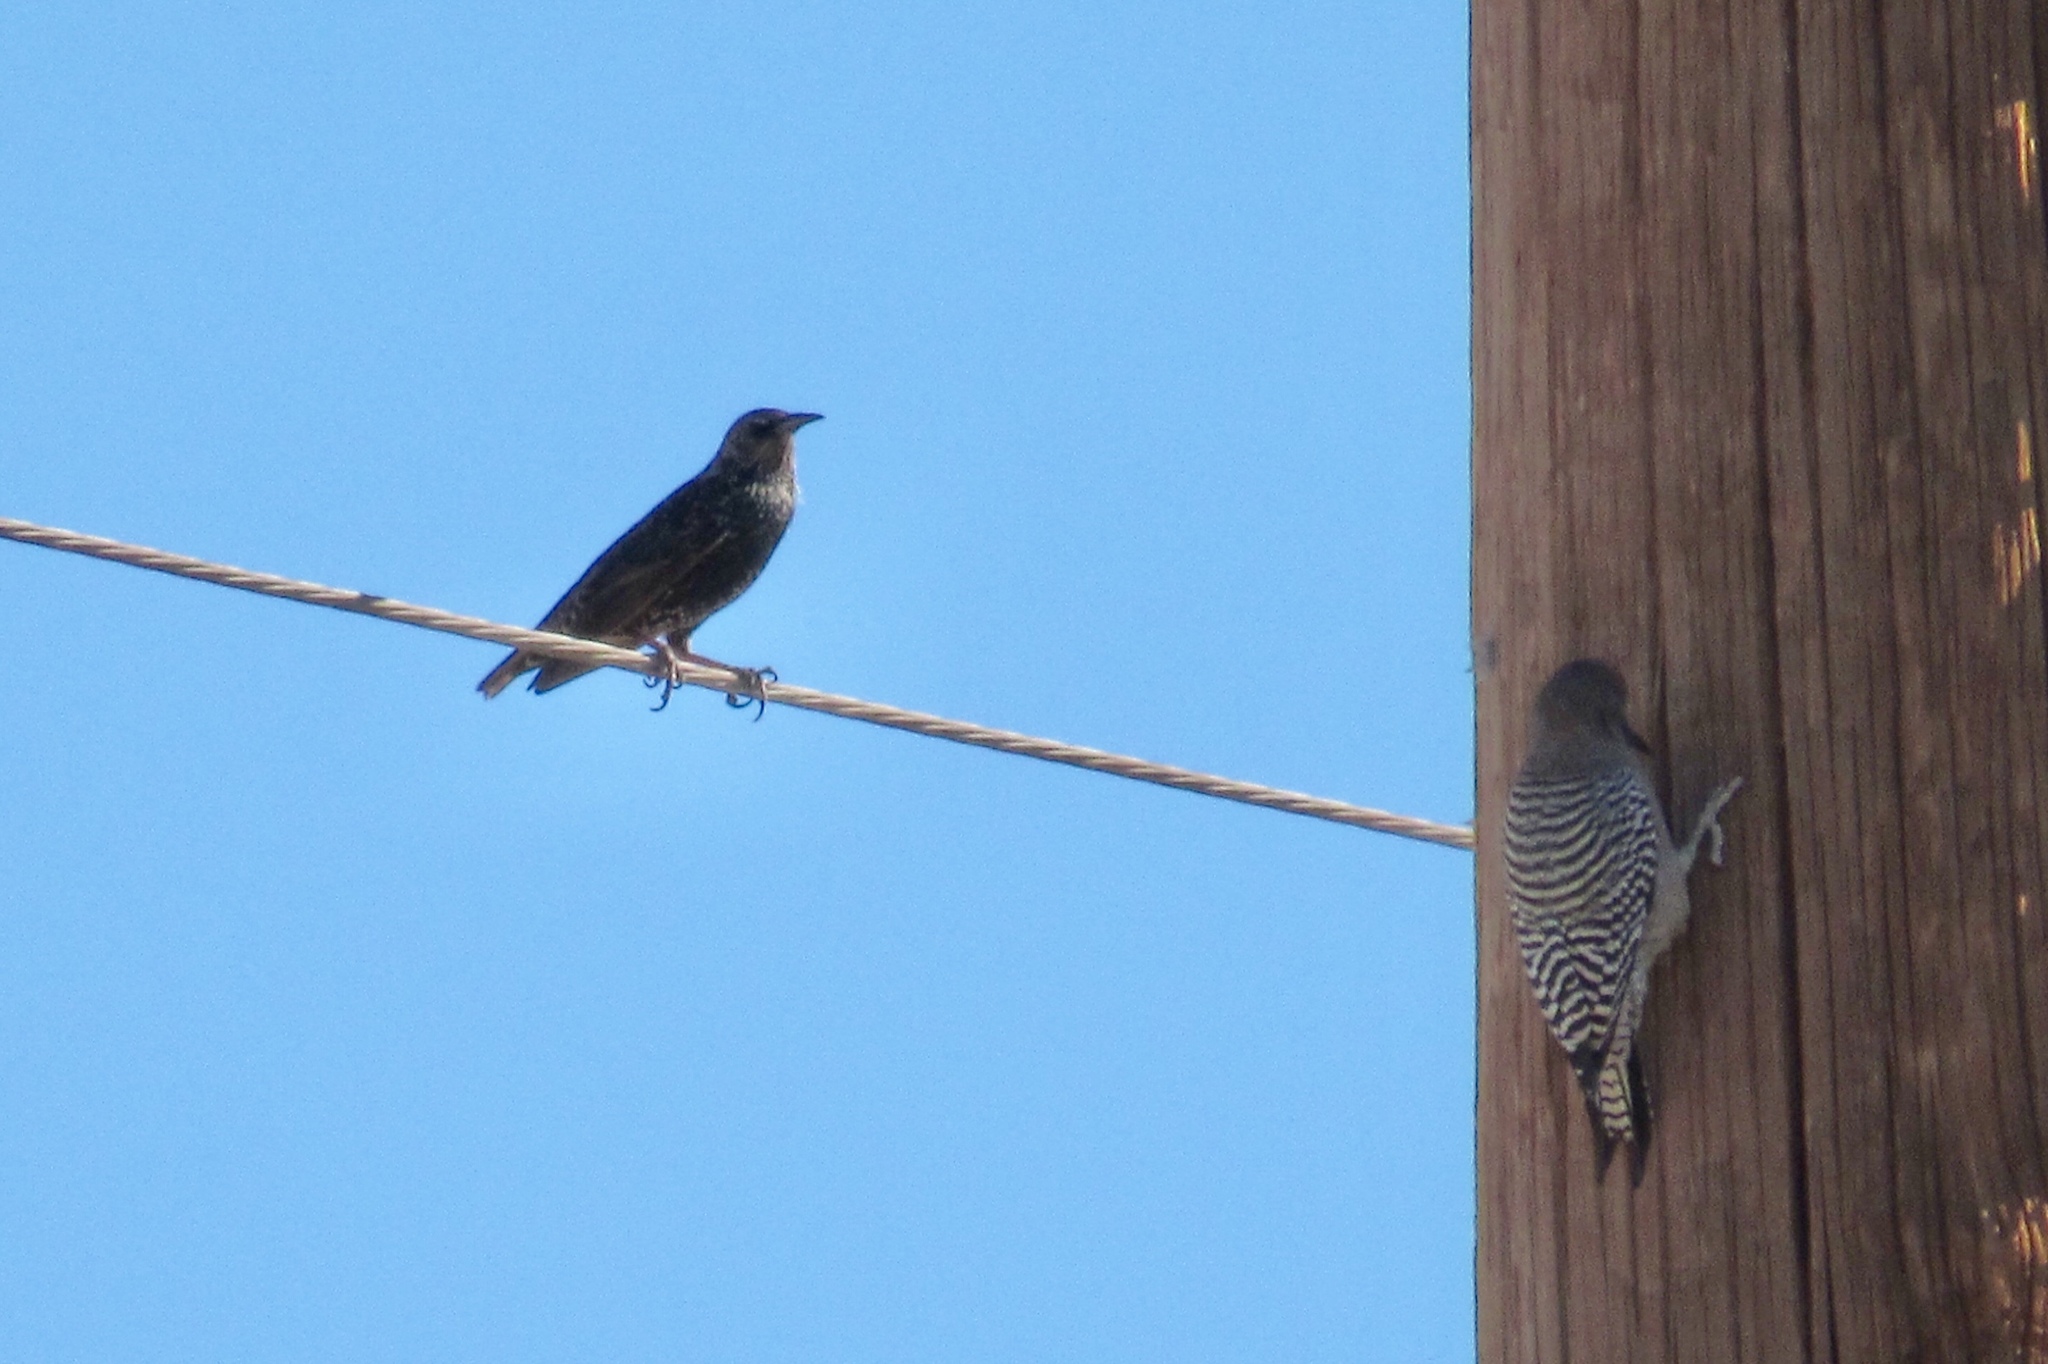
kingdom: Animalia
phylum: Chordata
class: Aves
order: Passeriformes
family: Sturnidae
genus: Sturnus
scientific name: Sturnus vulgaris
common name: Common starling
